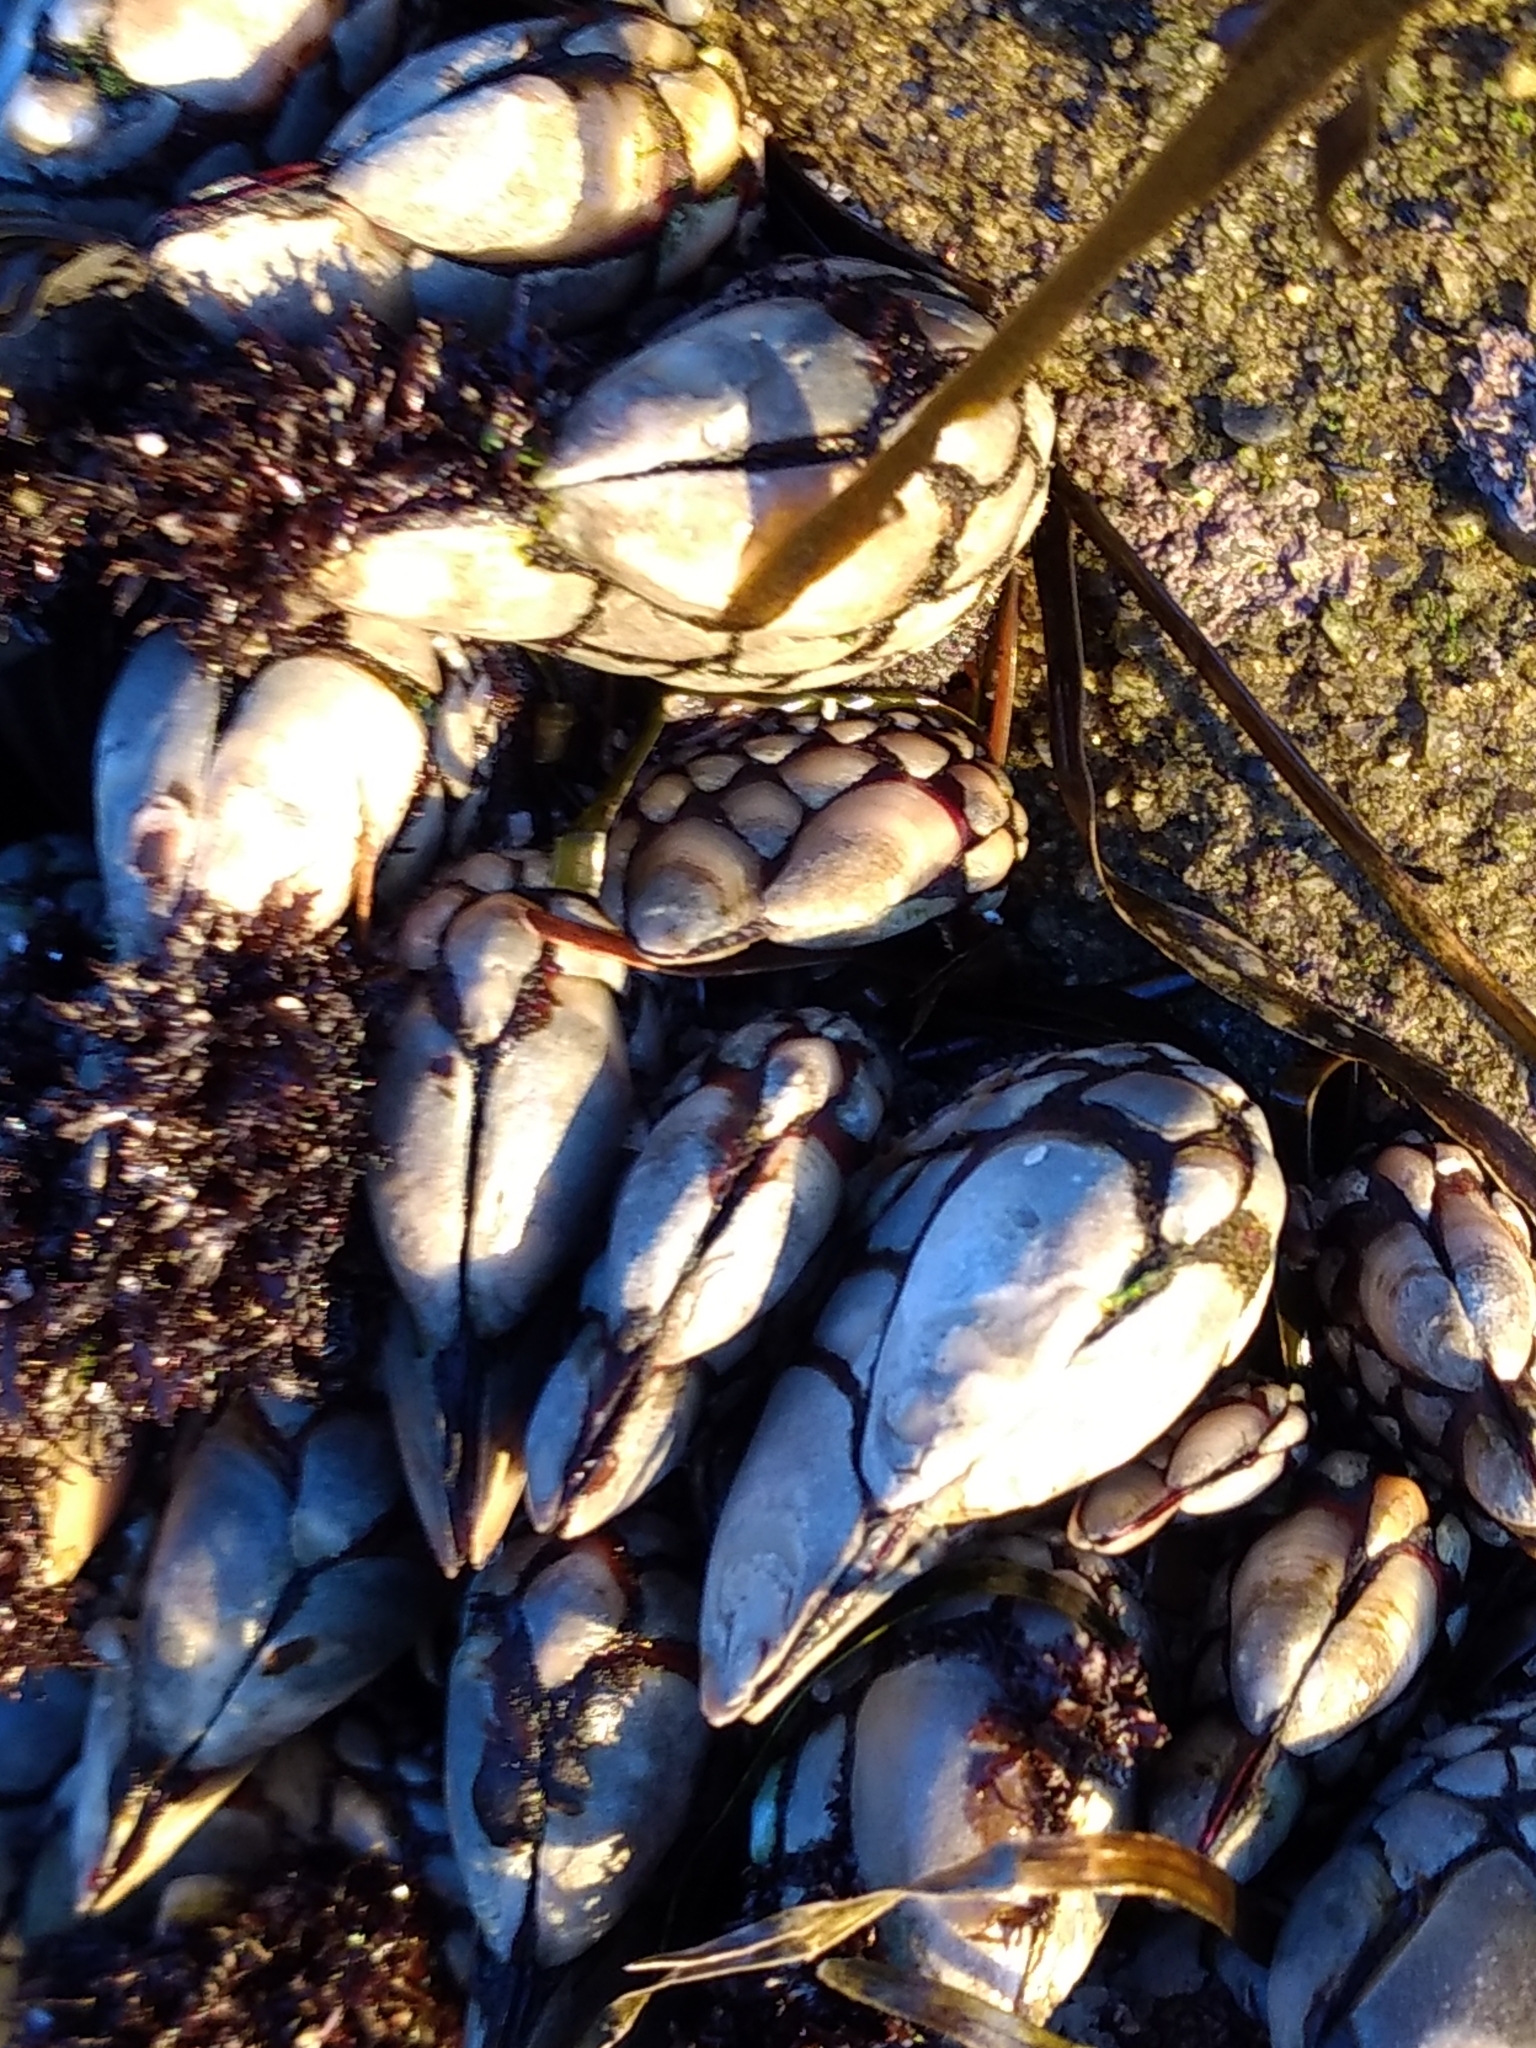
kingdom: Animalia
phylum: Arthropoda
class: Maxillopoda
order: Pedunculata
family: Pollicipedidae
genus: Pollicipes
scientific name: Pollicipes polymerus
